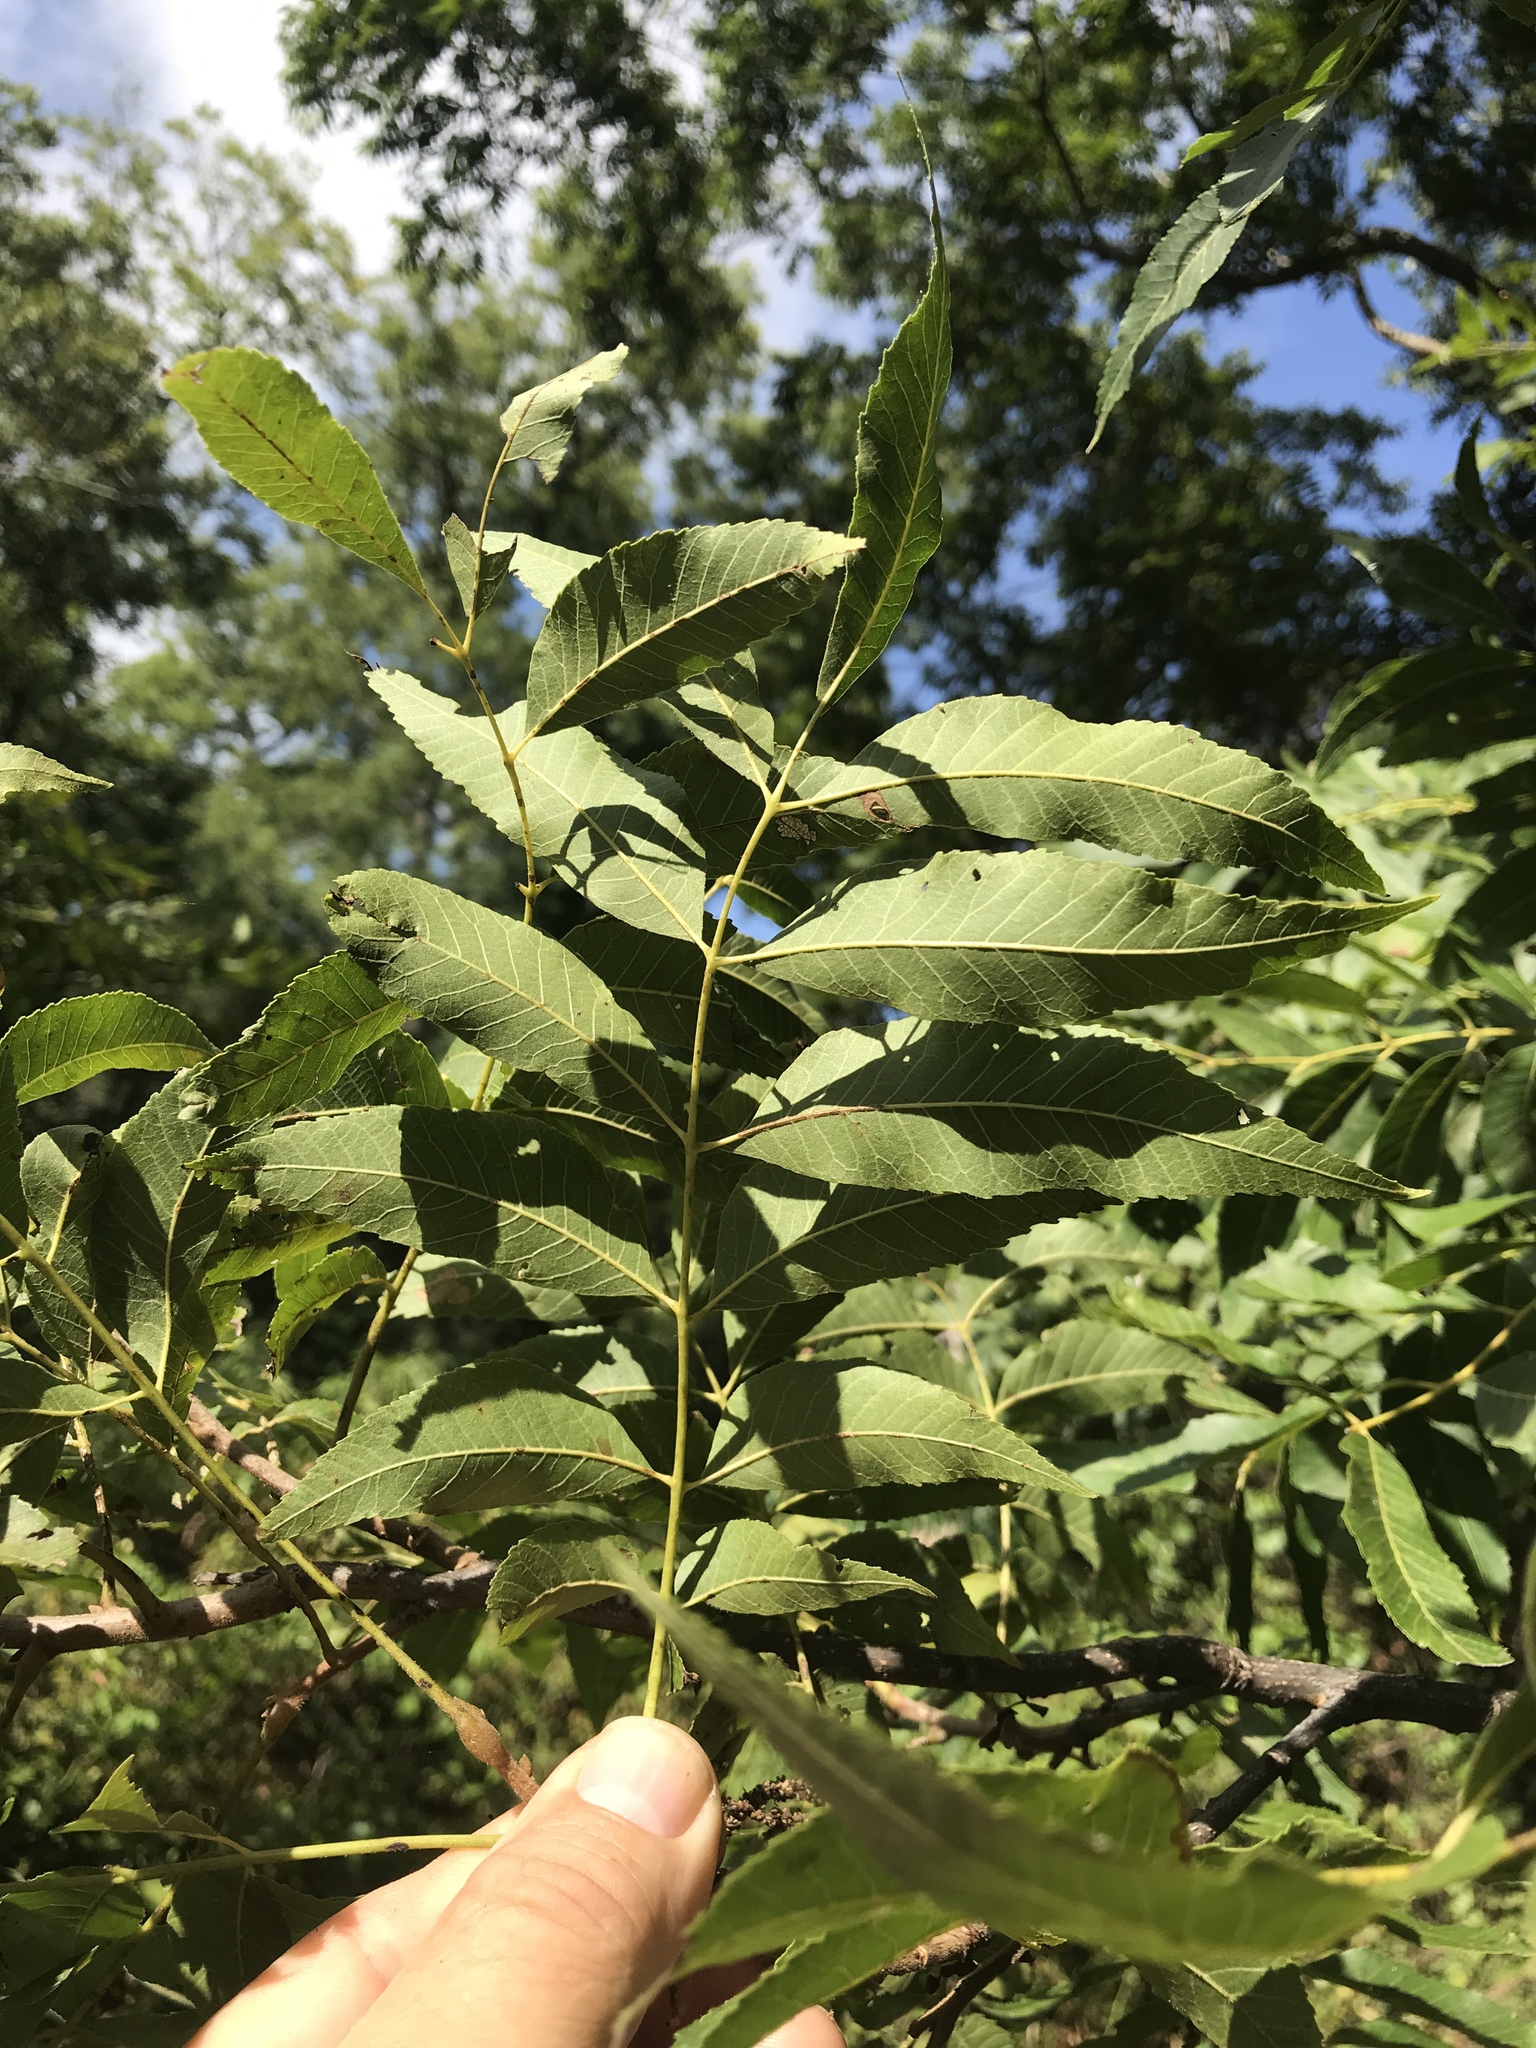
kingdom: Plantae
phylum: Tracheophyta
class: Magnoliopsida
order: Fagales
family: Juglandaceae
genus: Carya
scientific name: Carya illinoinensis
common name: Pecan
